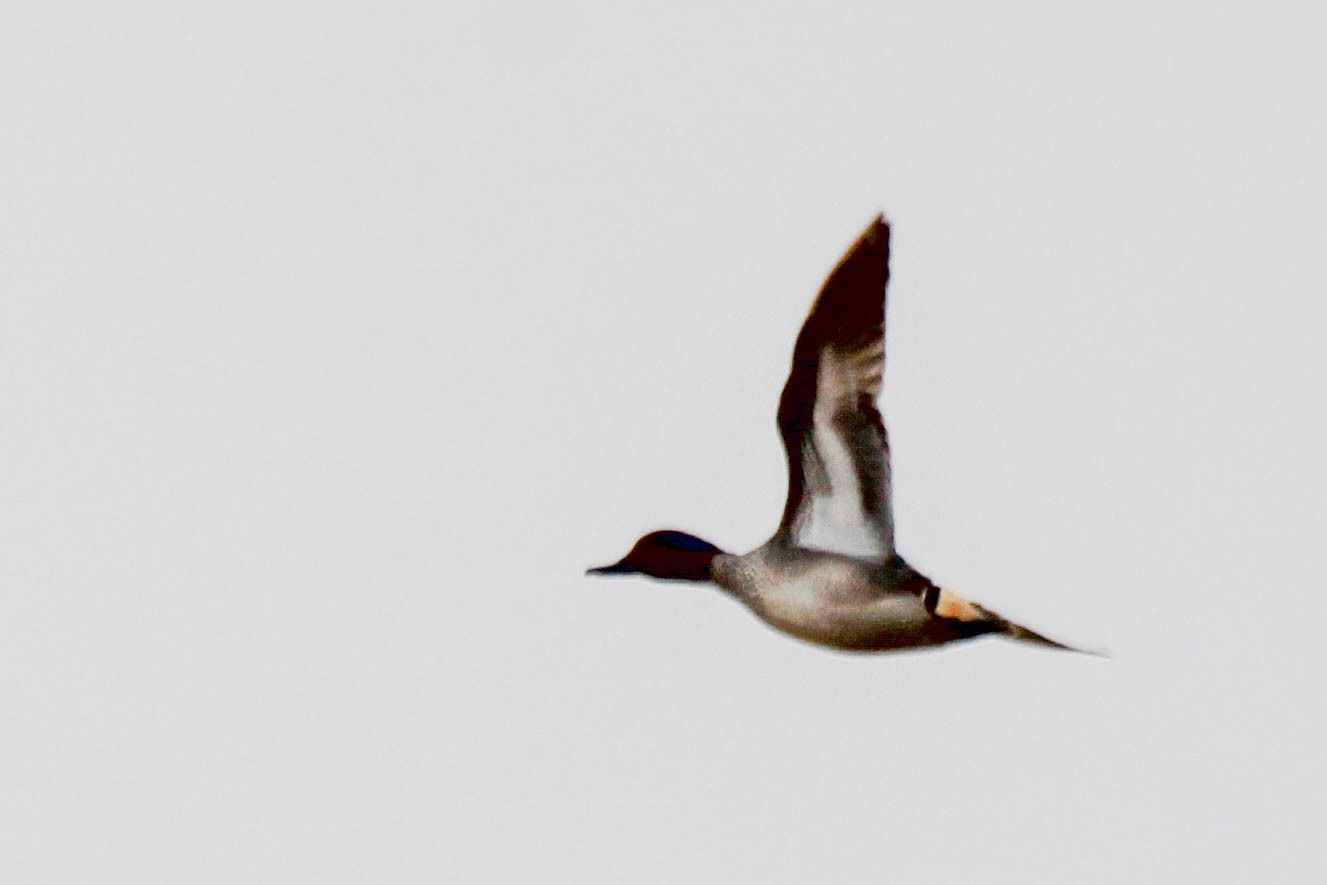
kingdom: Animalia
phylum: Chordata
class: Aves
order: Anseriformes
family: Anatidae
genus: Anas
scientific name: Anas crecca
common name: Eurasian teal
